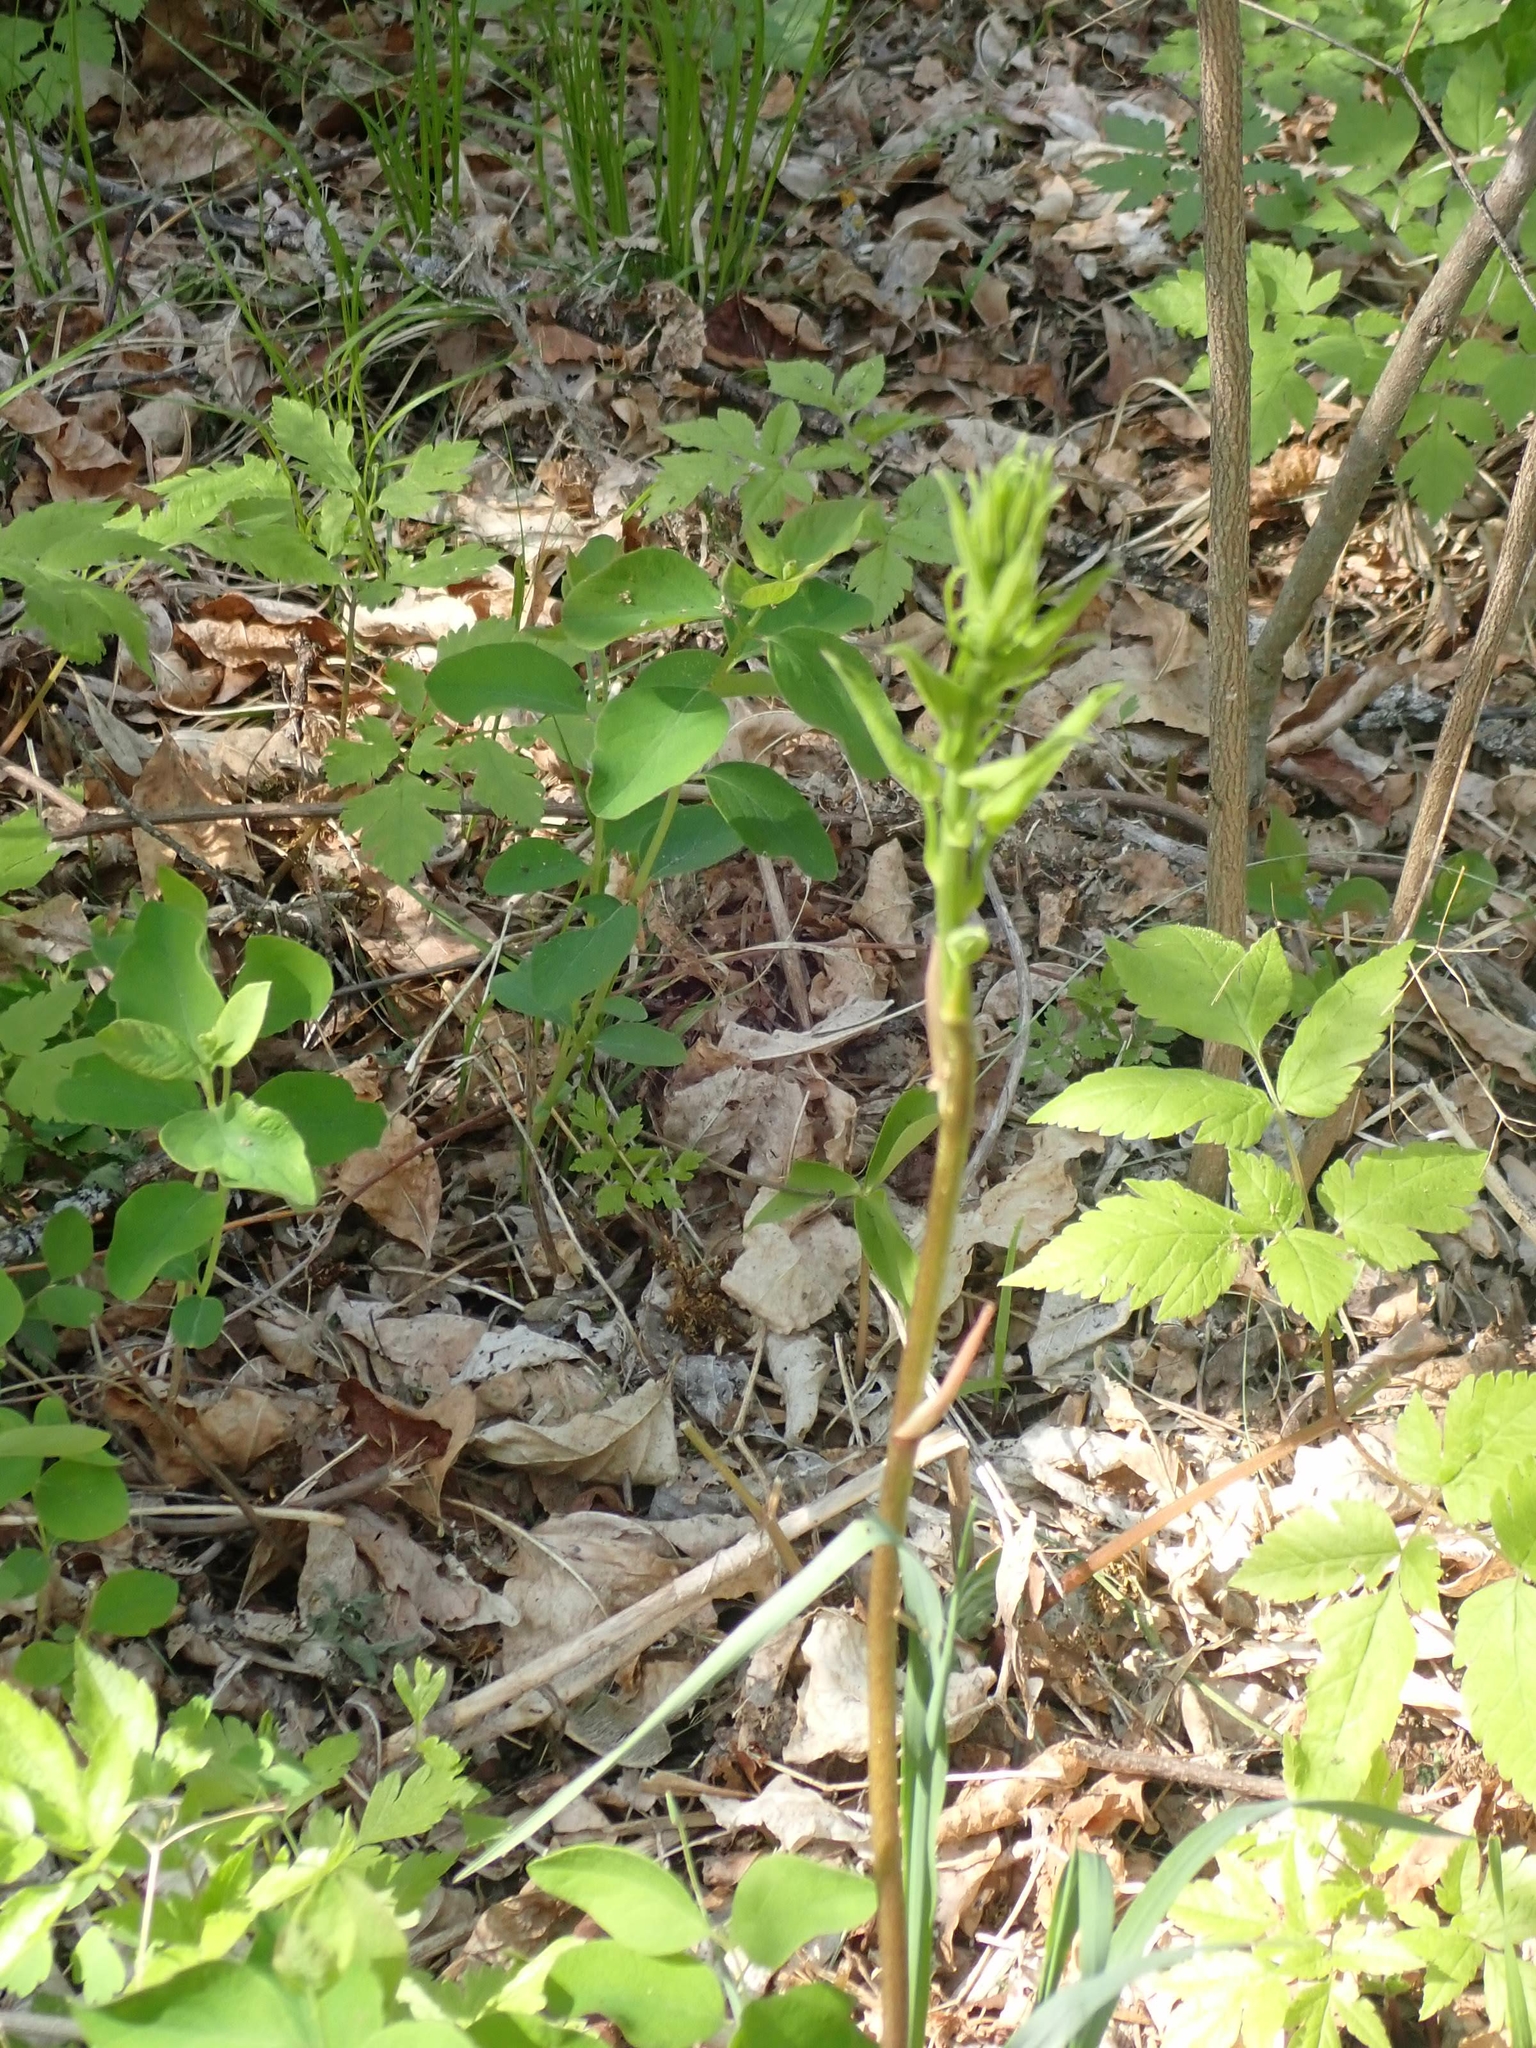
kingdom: Plantae
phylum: Tracheophyta
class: Liliopsida
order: Liliales
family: Smilacaceae
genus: Smilax
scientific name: Smilax lasioneura
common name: Blue ridge carrionflower
